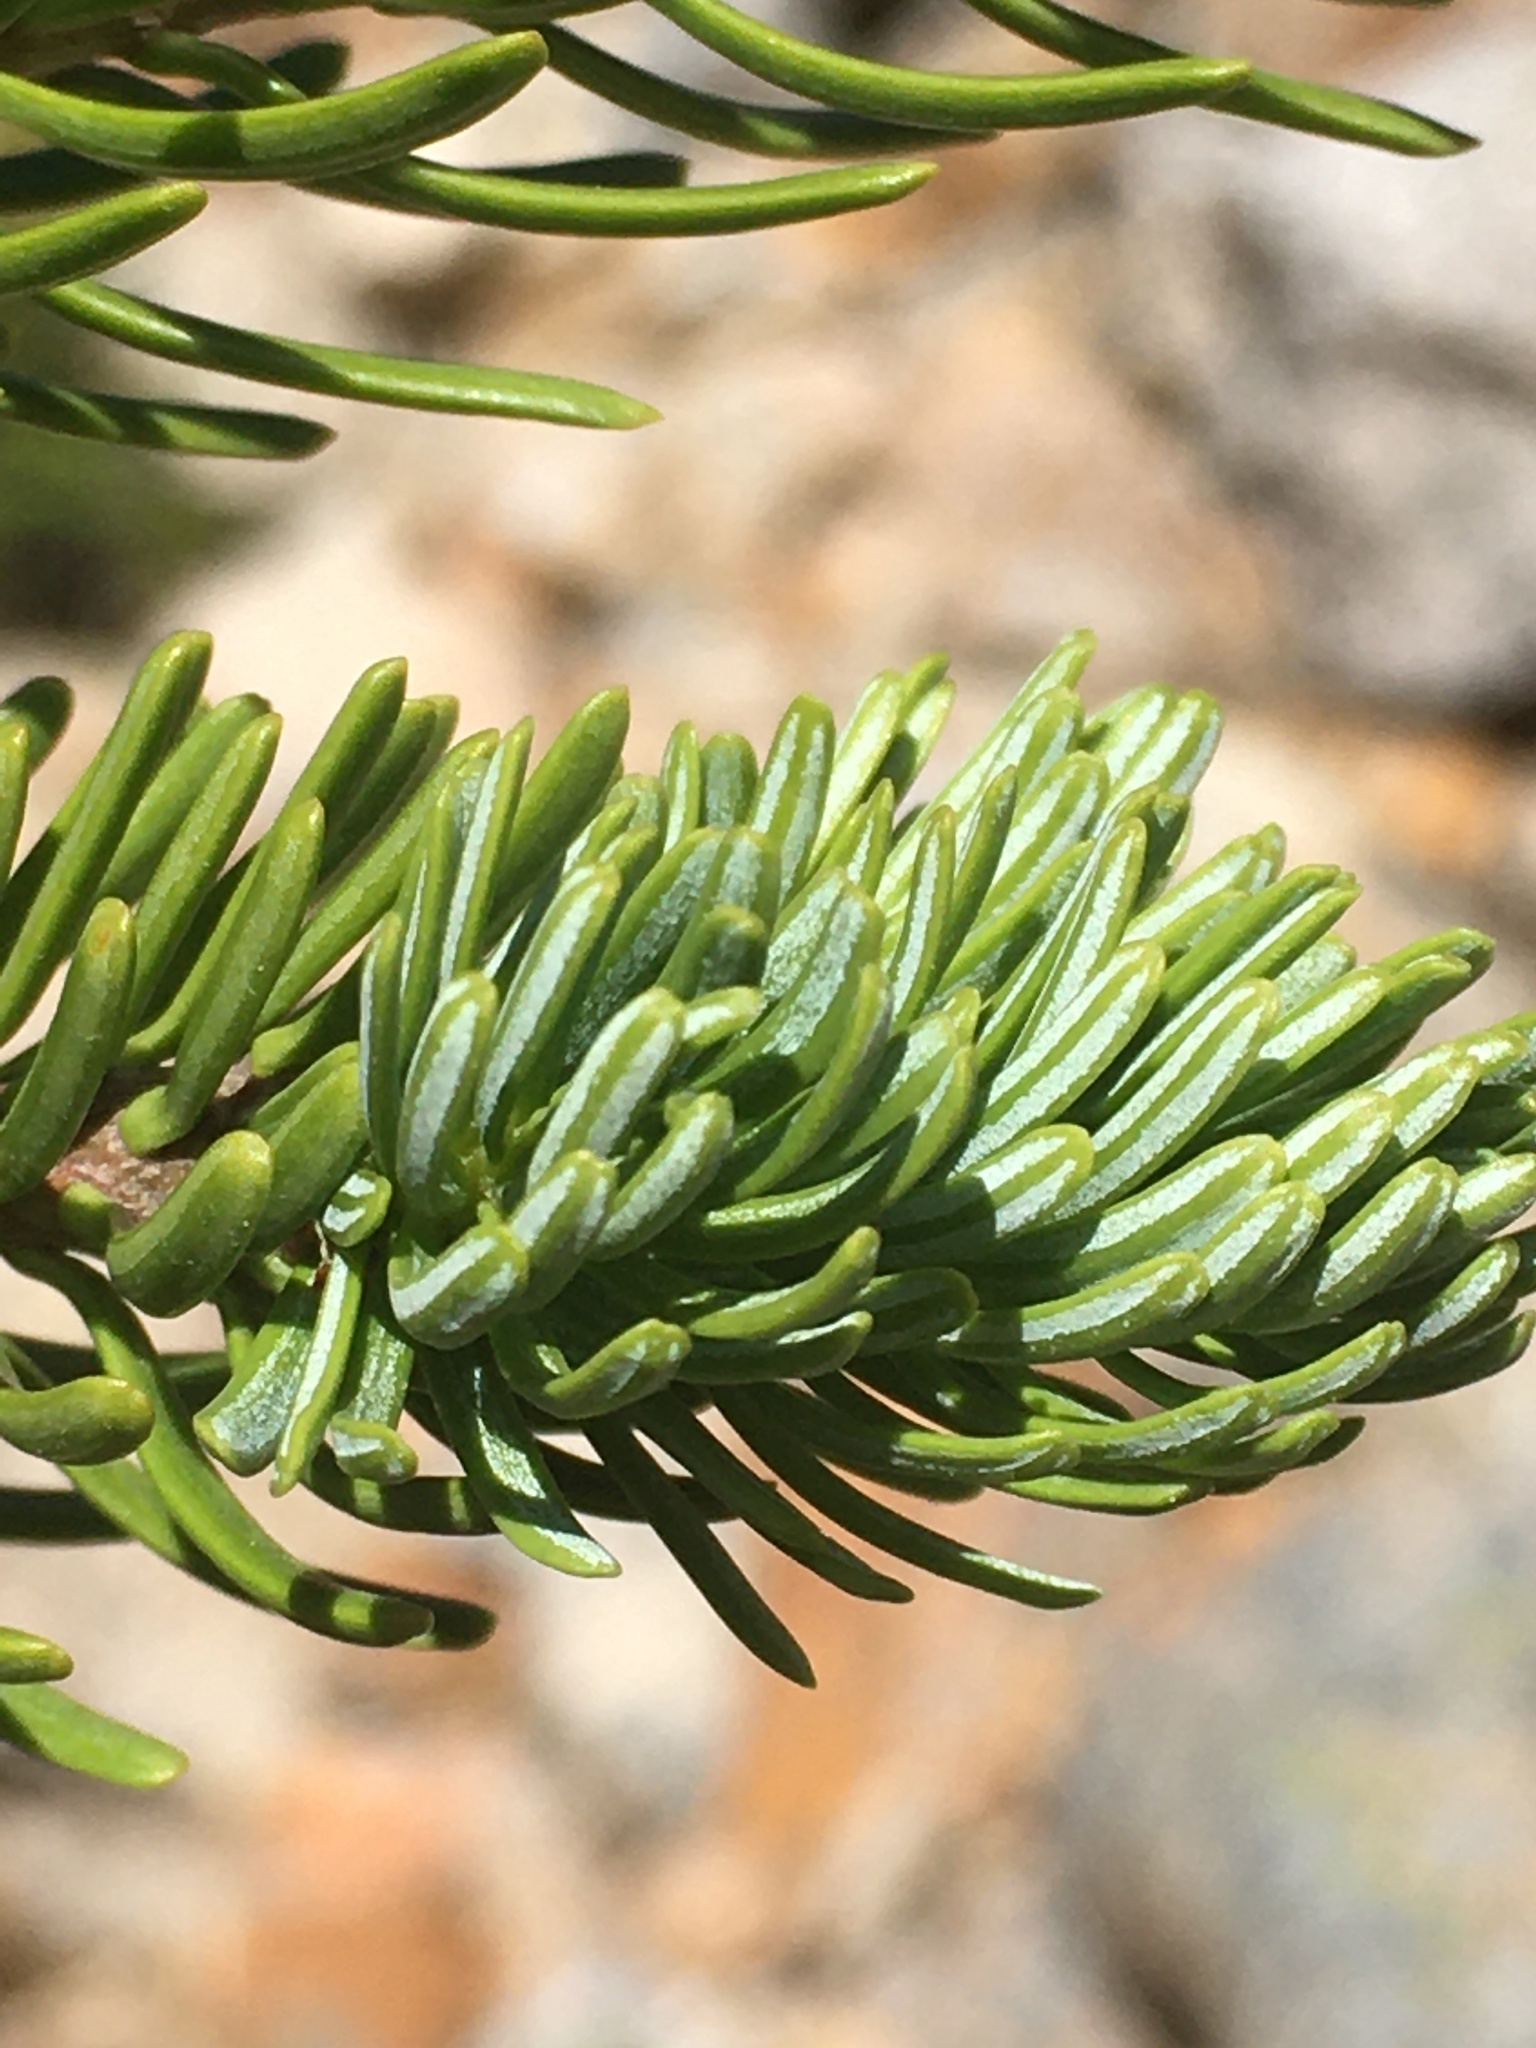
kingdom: Plantae
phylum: Tracheophyta
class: Pinopsida
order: Pinales
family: Pinaceae
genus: Abies
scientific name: Abies lasiocarpa
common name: Subalpine fir
